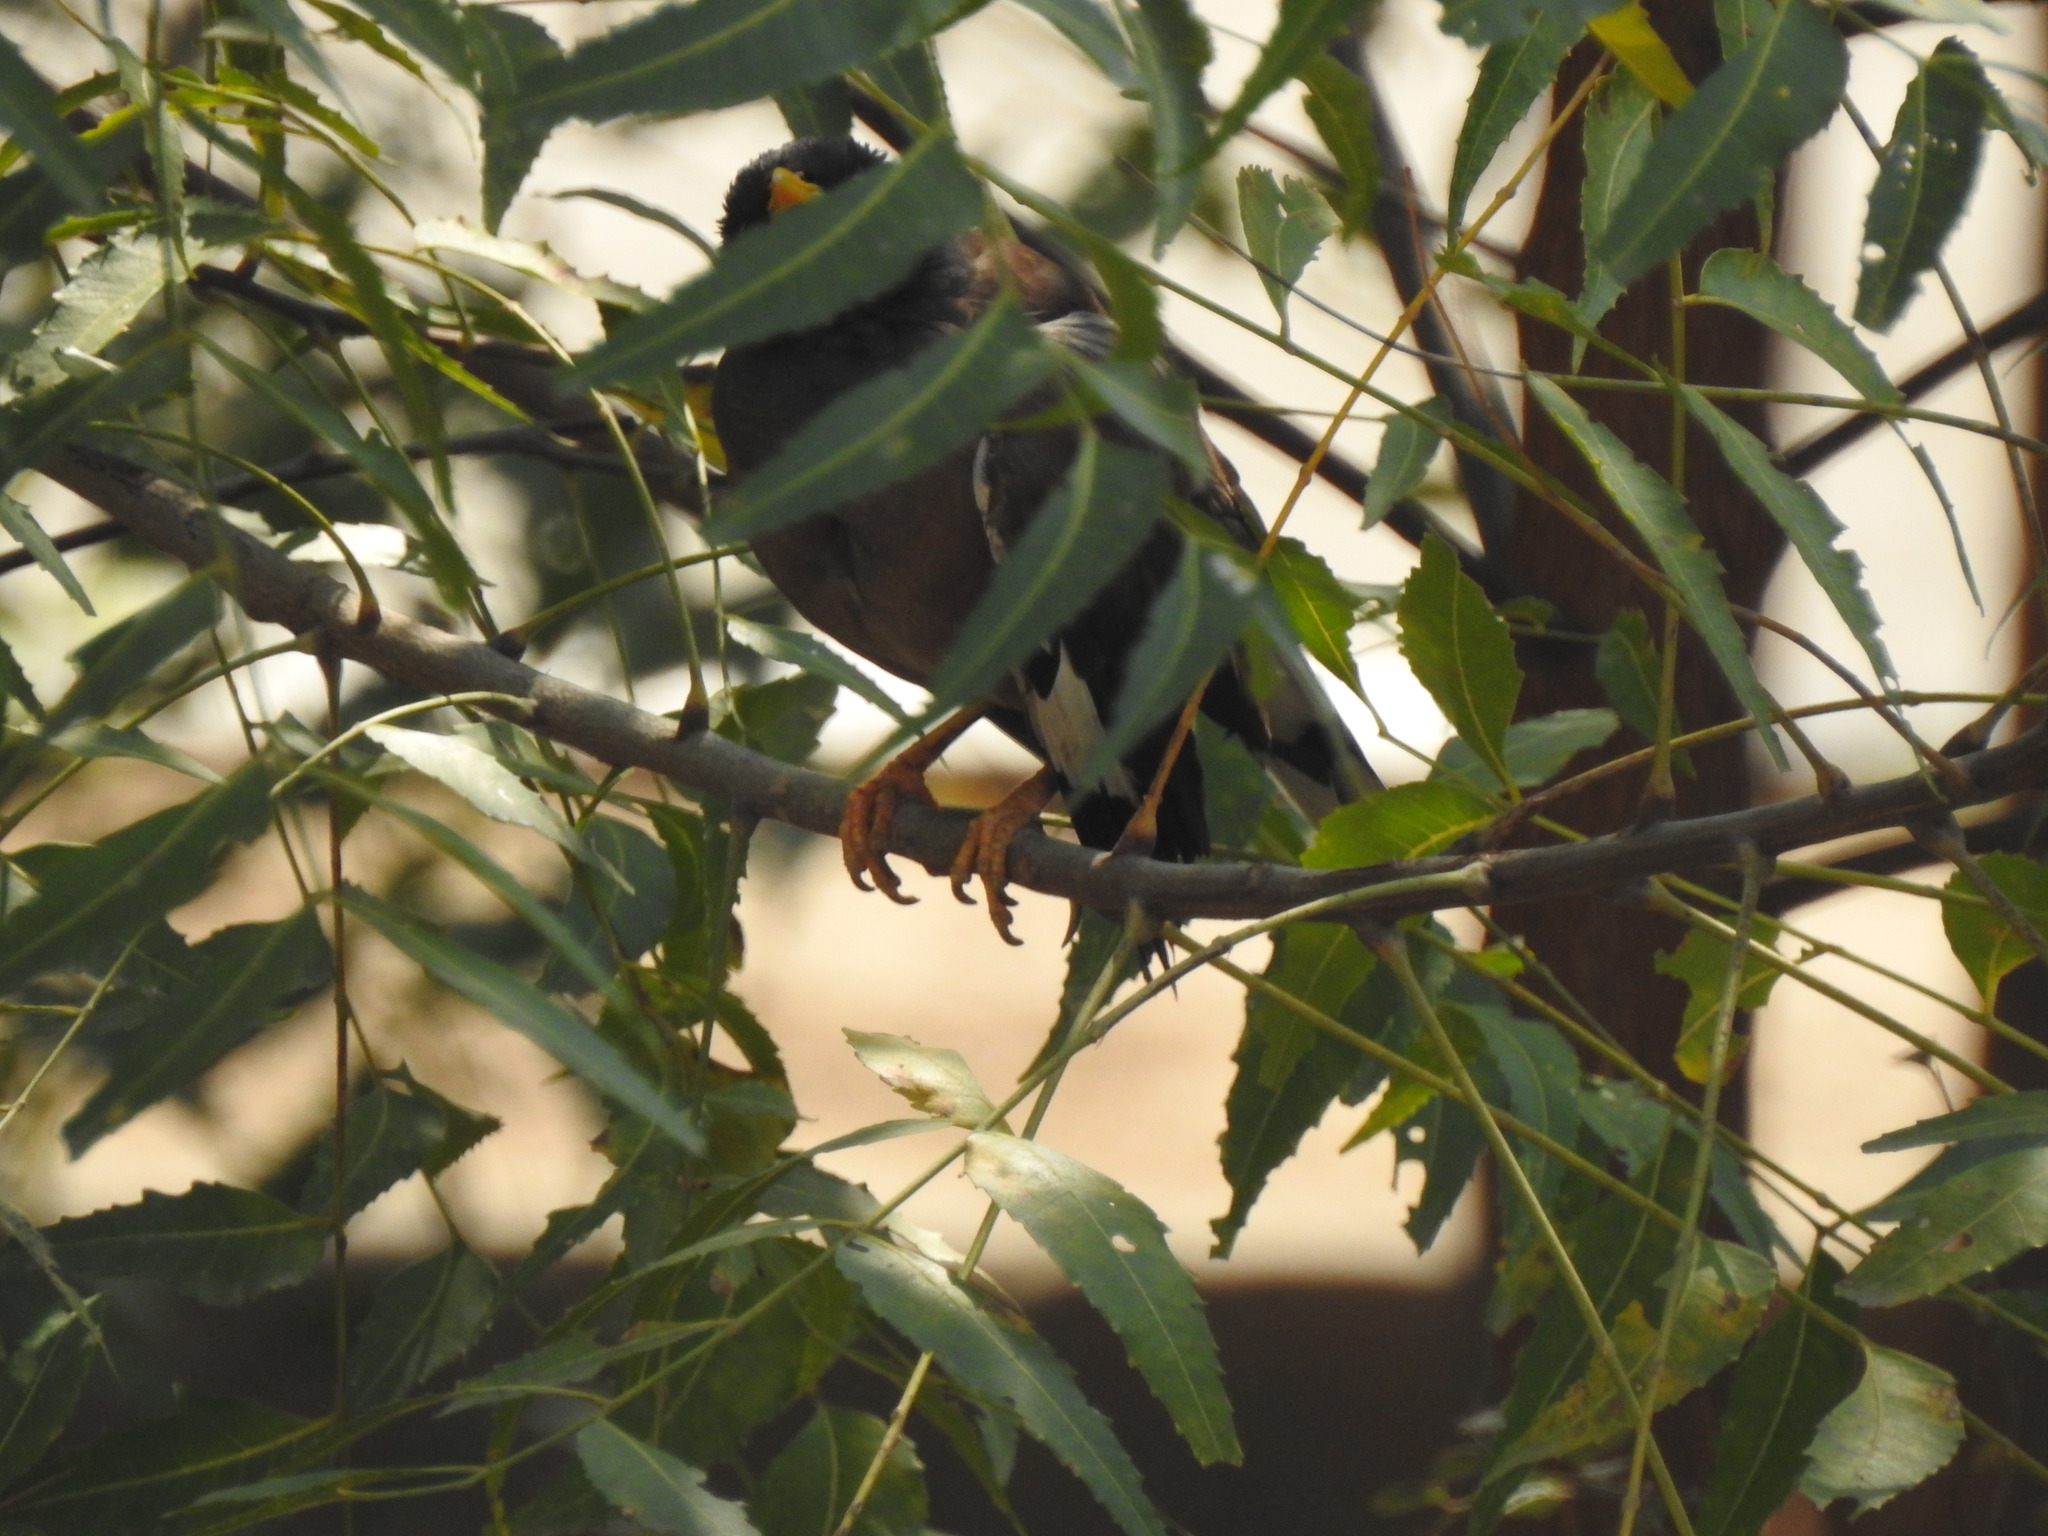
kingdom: Animalia
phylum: Chordata
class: Aves
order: Passeriformes
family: Sturnidae
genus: Acridotheres
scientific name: Acridotheres tristis
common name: Common myna
